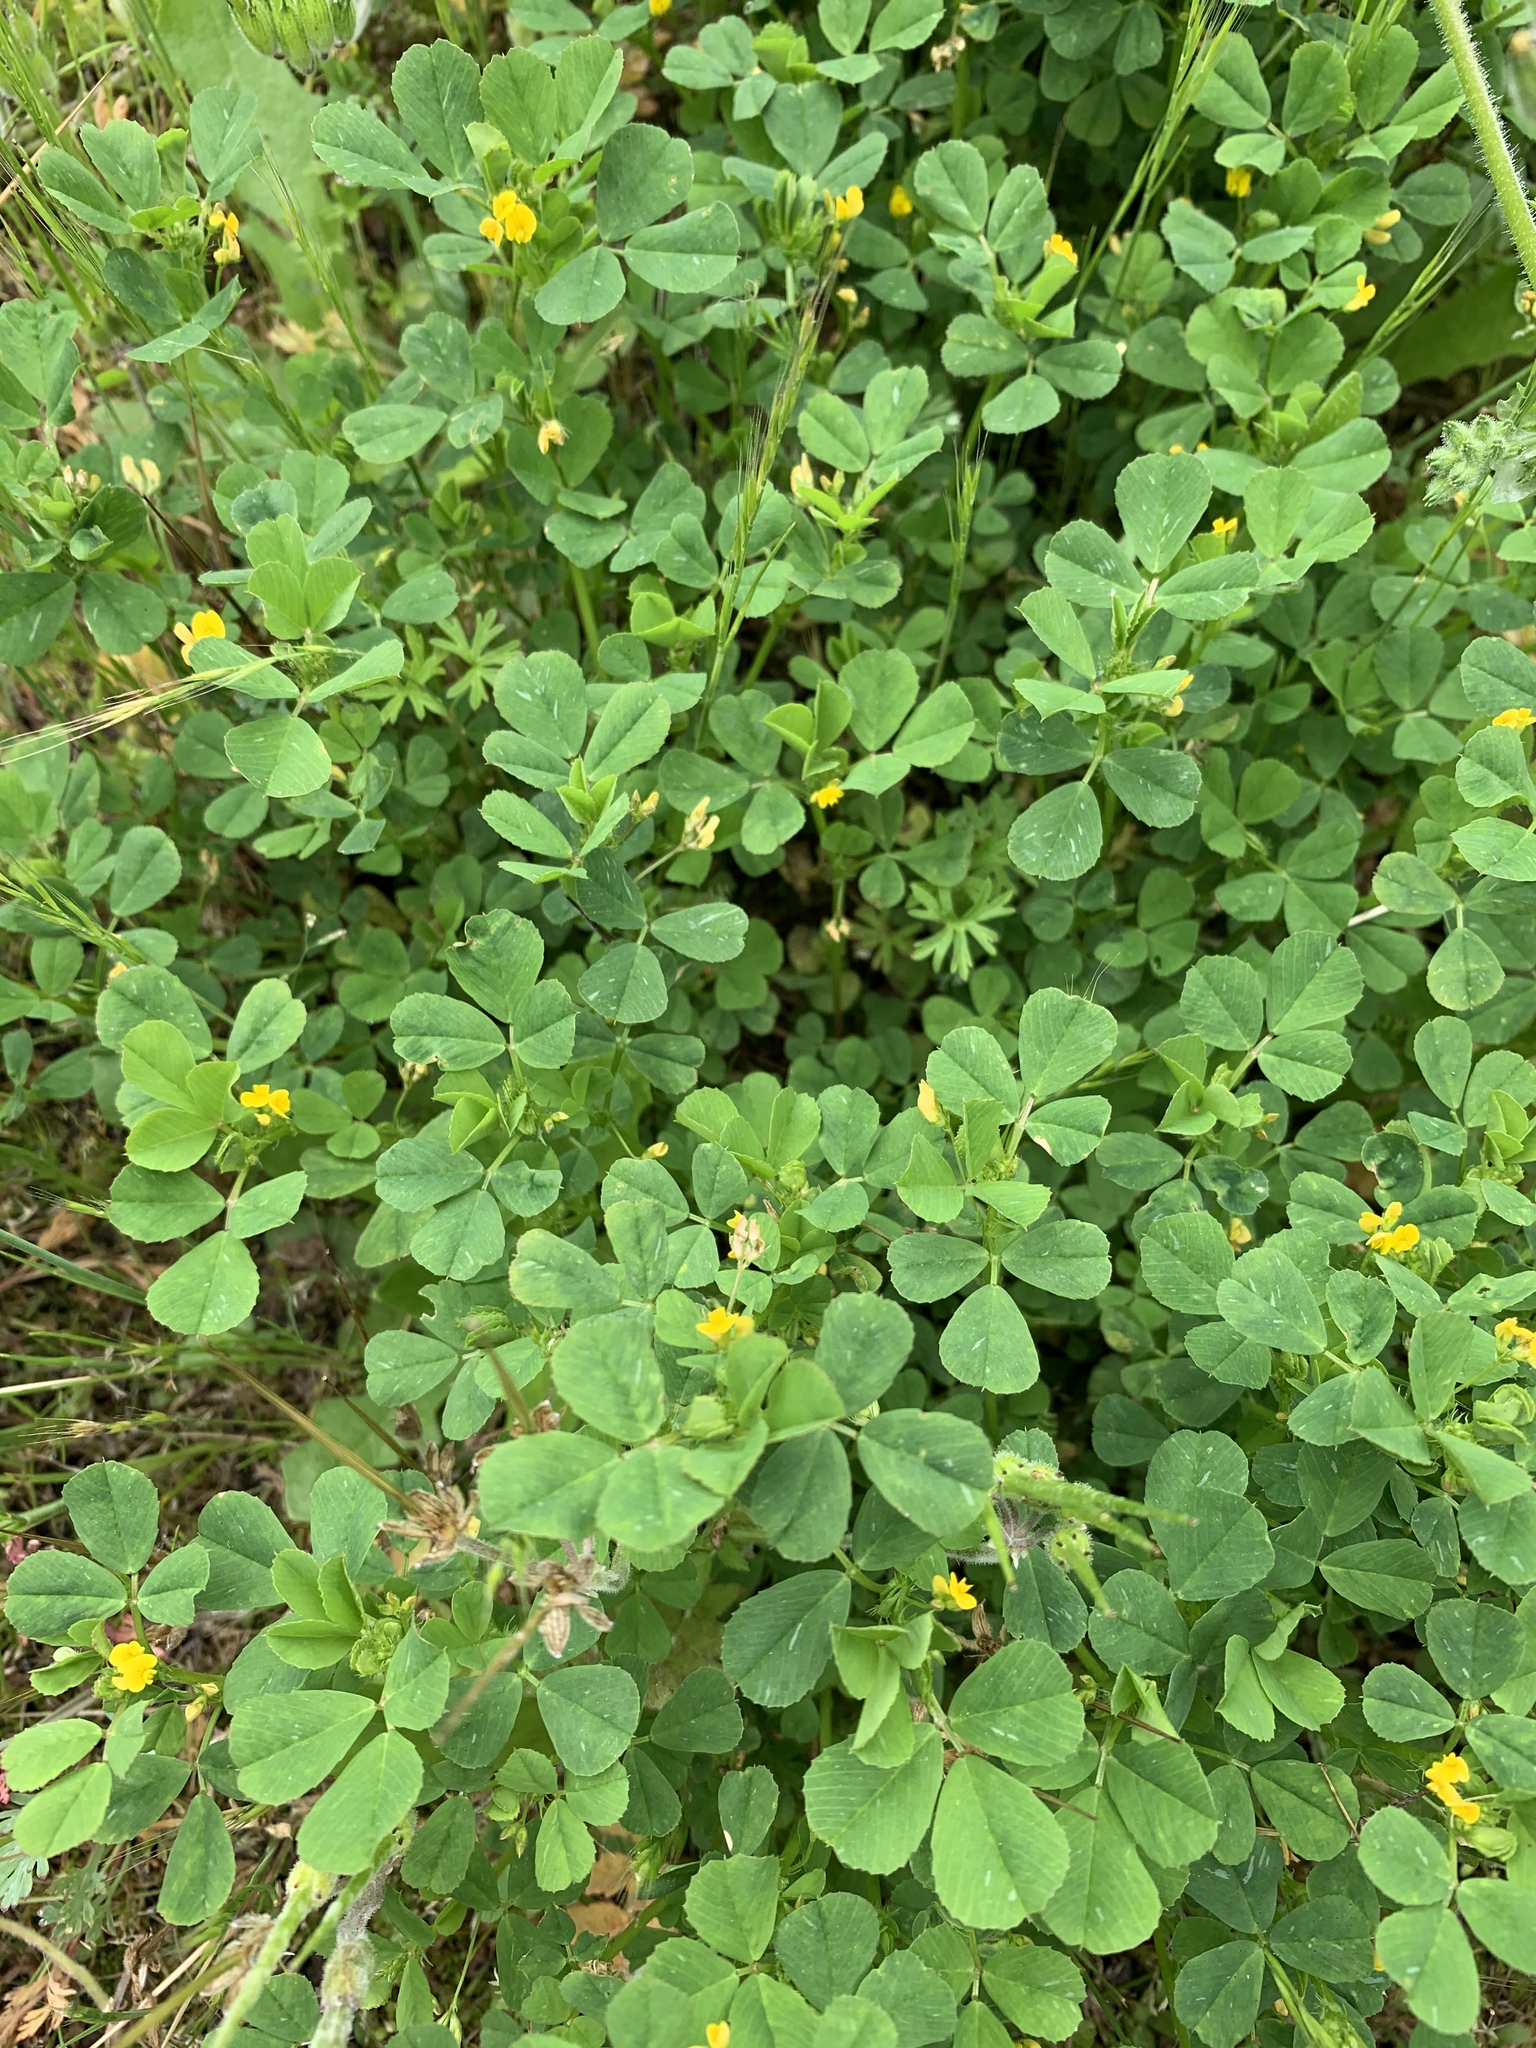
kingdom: Plantae
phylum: Tracheophyta
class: Magnoliopsida
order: Fabales
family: Fabaceae
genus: Medicago
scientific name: Medicago polymorpha
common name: Burclover
